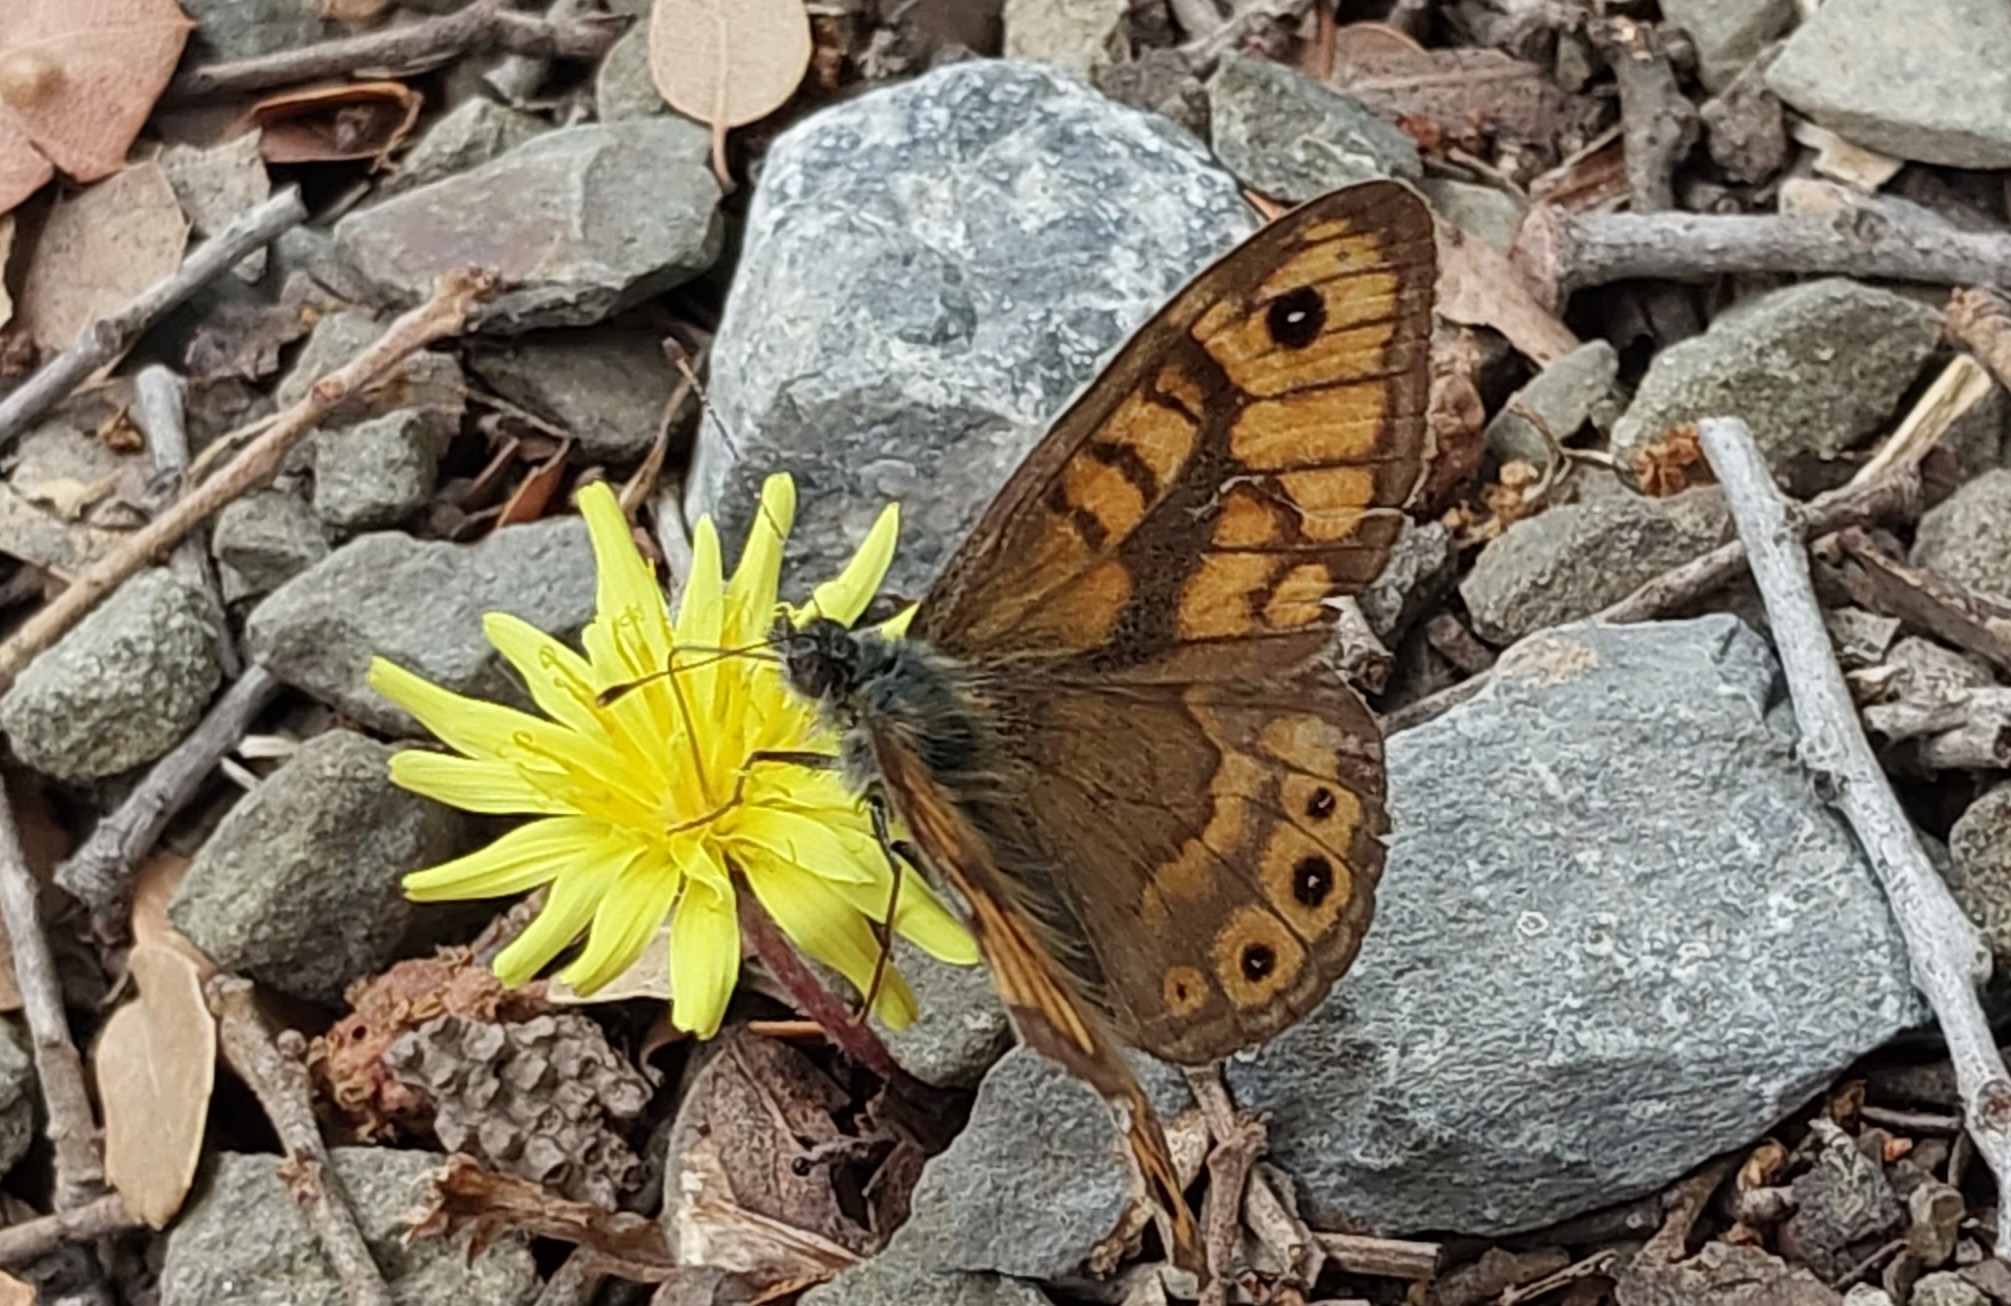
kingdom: Animalia
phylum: Arthropoda
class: Insecta
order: Lepidoptera
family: Nymphalidae
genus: Pararge
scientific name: Pararge Lasiommata megera
